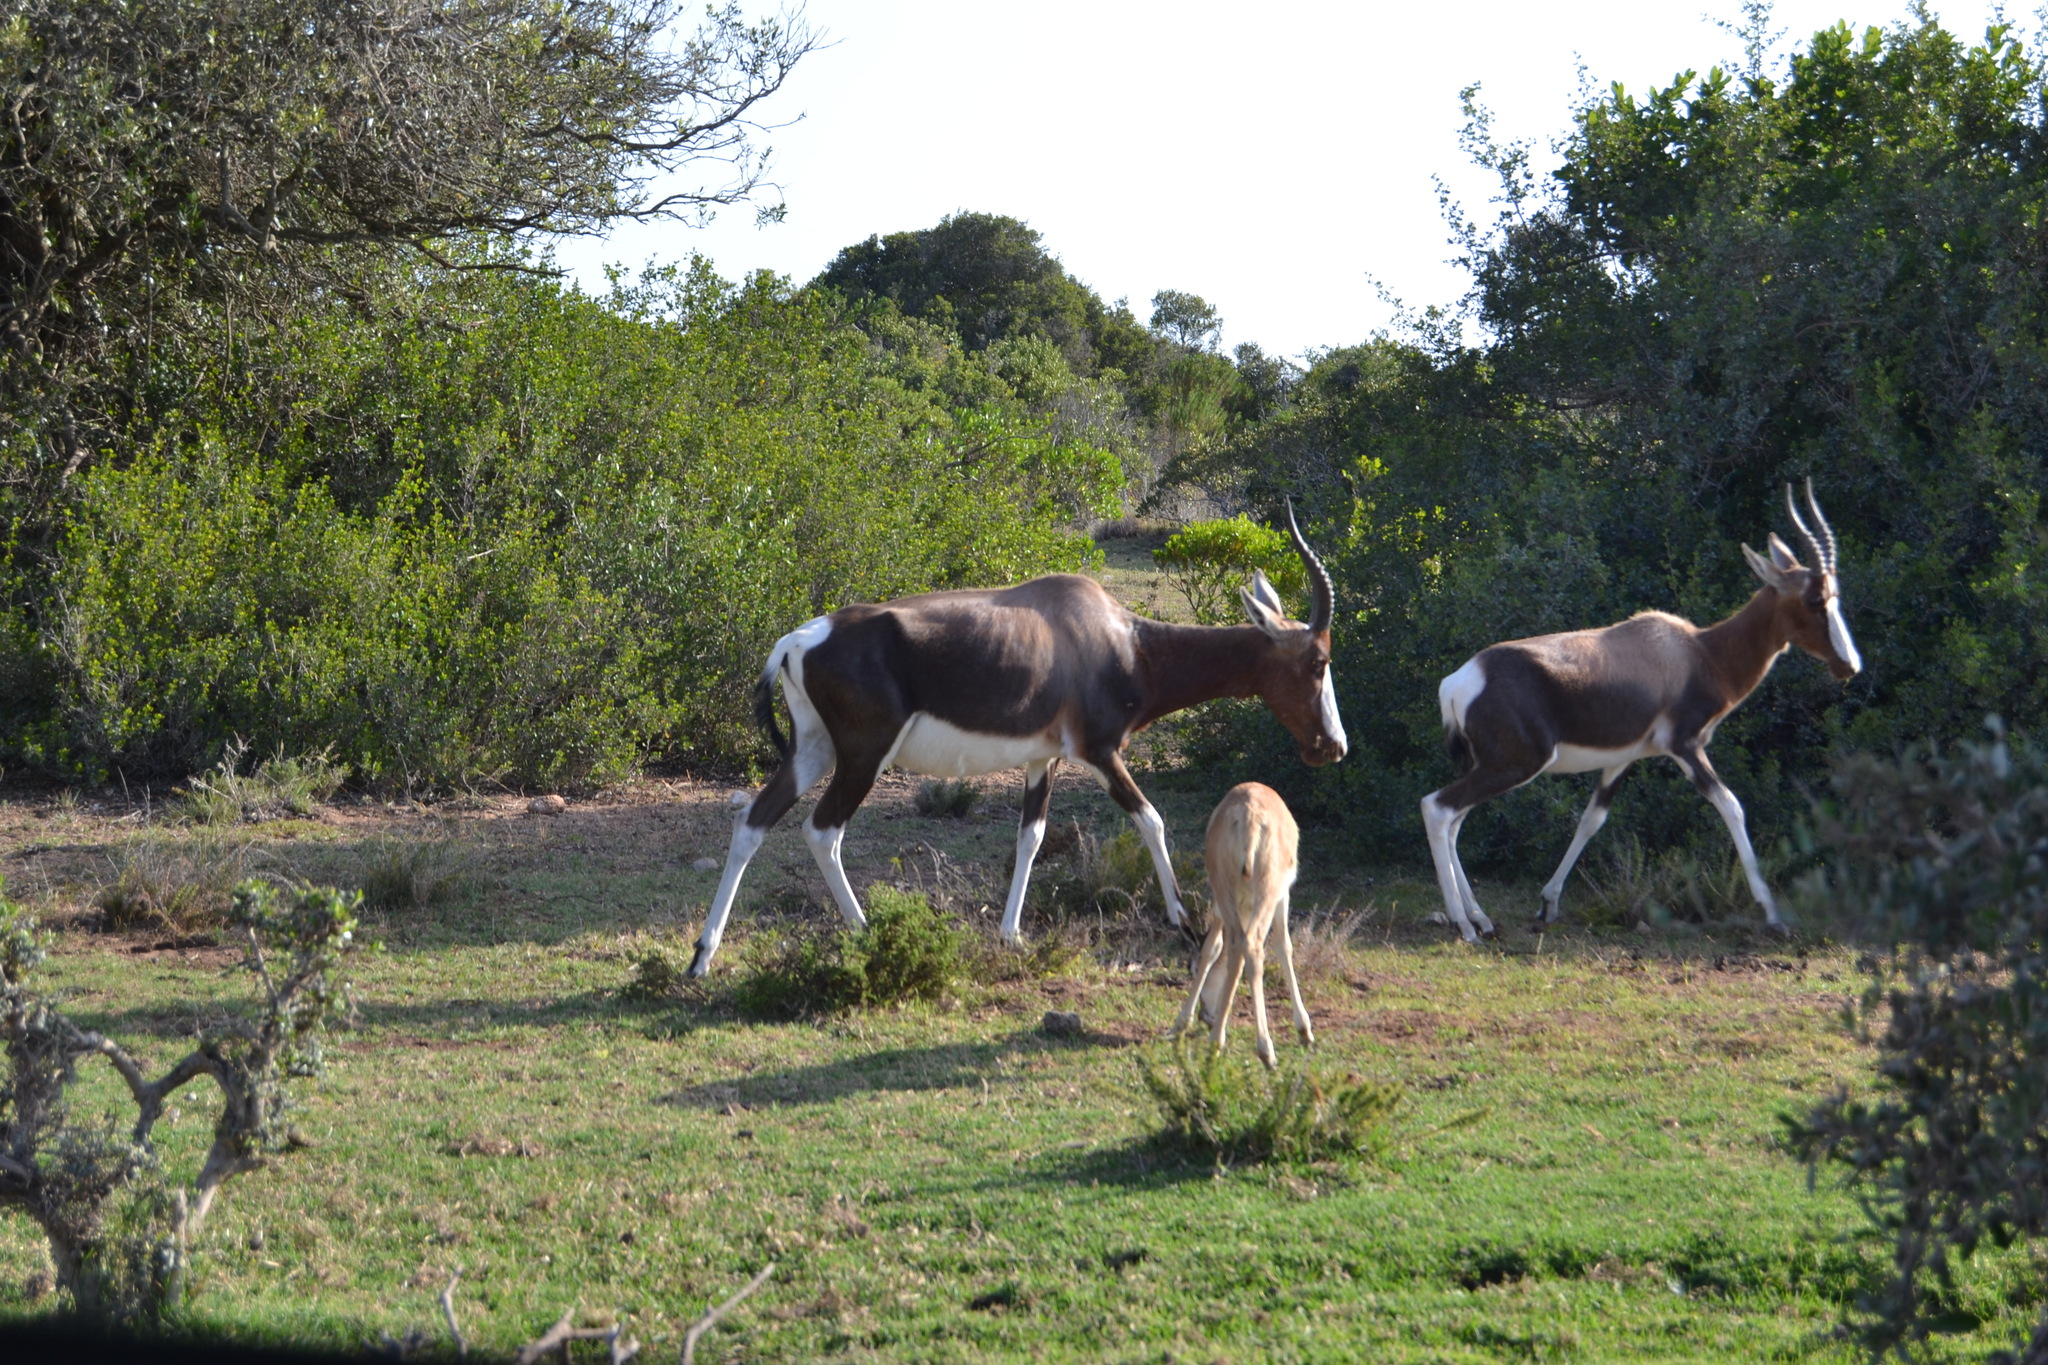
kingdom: Animalia
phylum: Chordata
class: Mammalia
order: Artiodactyla
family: Bovidae
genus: Damaliscus
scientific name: Damaliscus pygargus
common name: Bontebok
